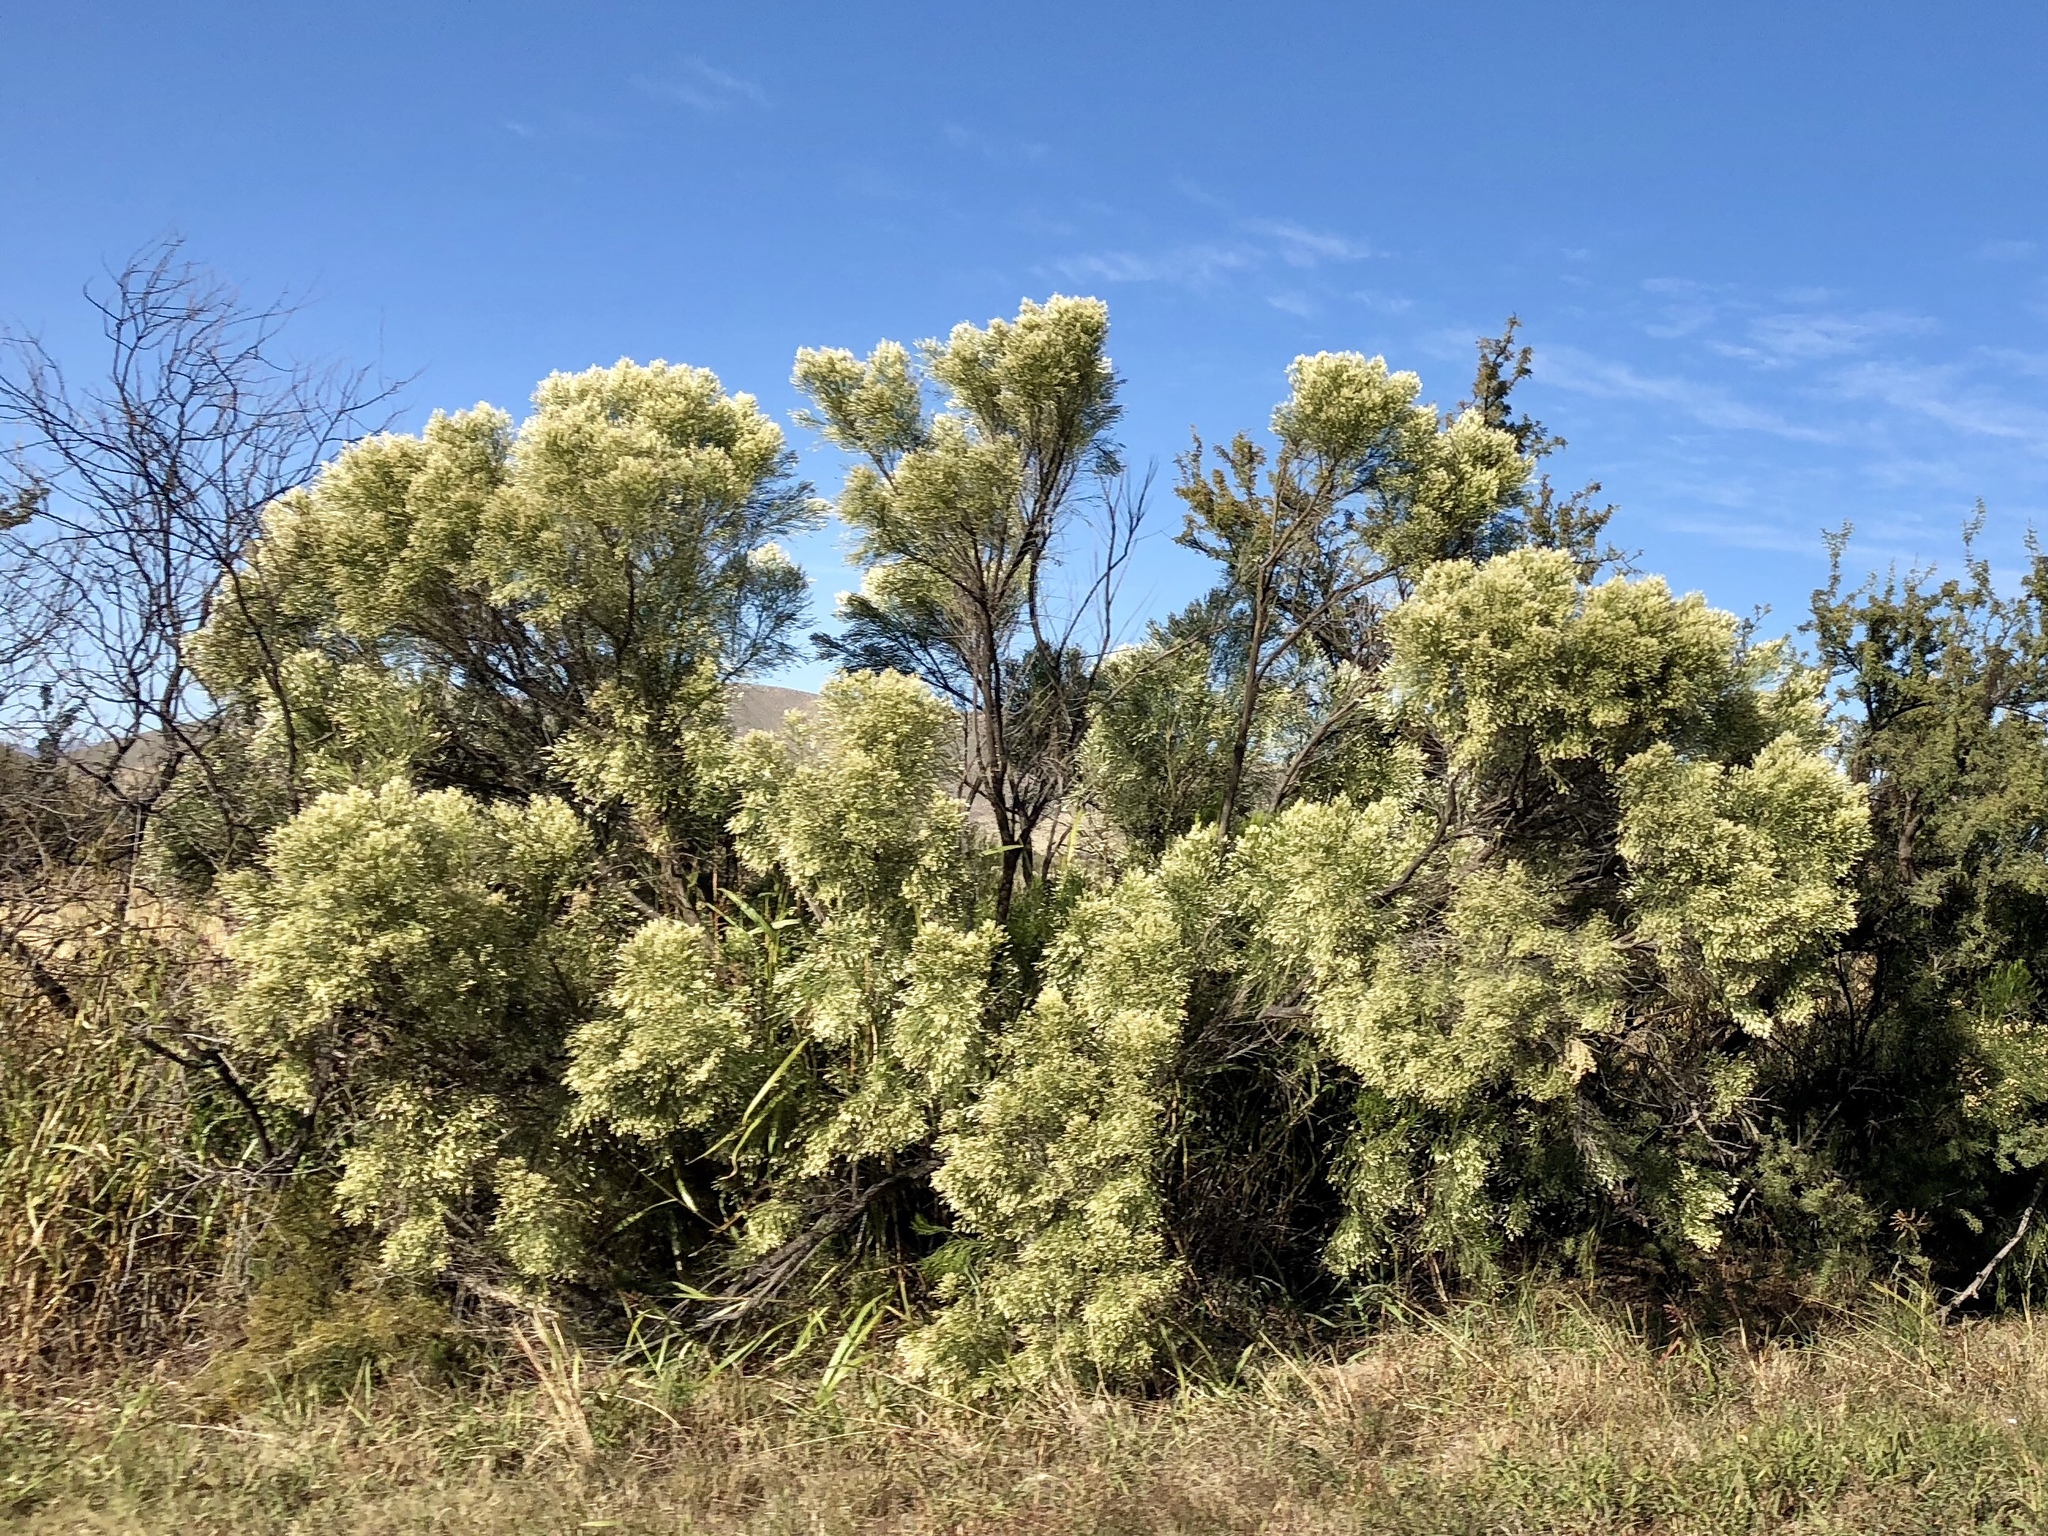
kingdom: Plantae
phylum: Tracheophyta
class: Magnoliopsida
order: Asterales
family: Asteraceae
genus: Baccharis
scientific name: Baccharis sarothroides
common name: Desert-broom
